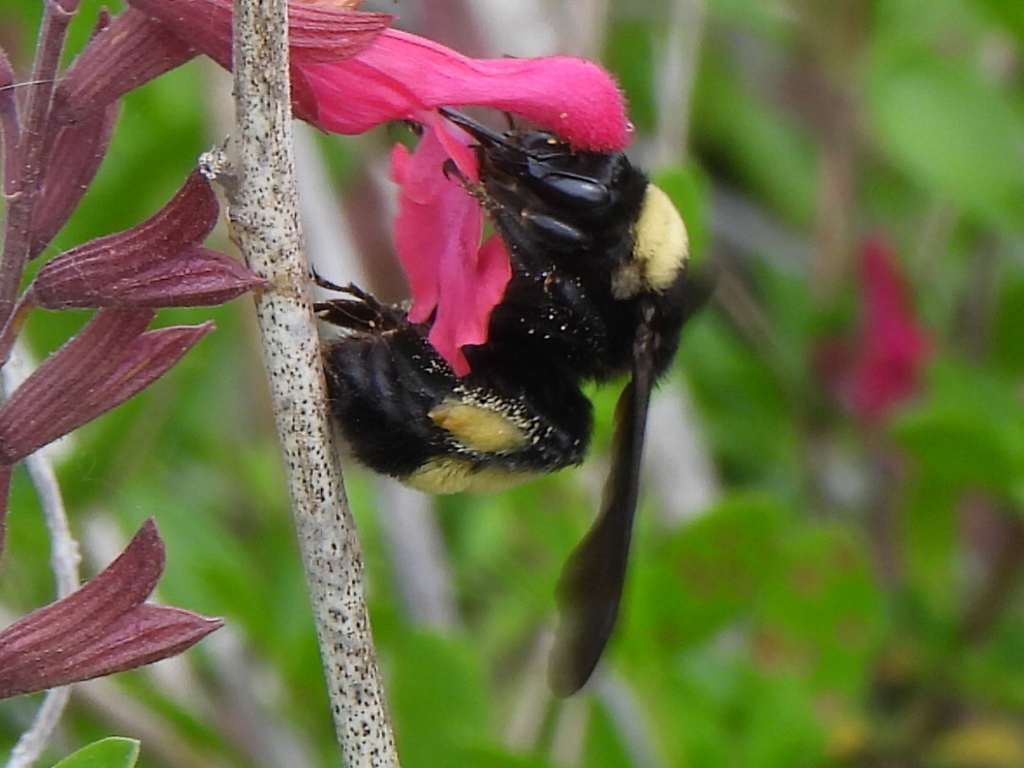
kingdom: Animalia
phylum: Arthropoda
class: Insecta
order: Hymenoptera
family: Apidae
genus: Bombus
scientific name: Bombus pensylvanicus
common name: Bumble bee
